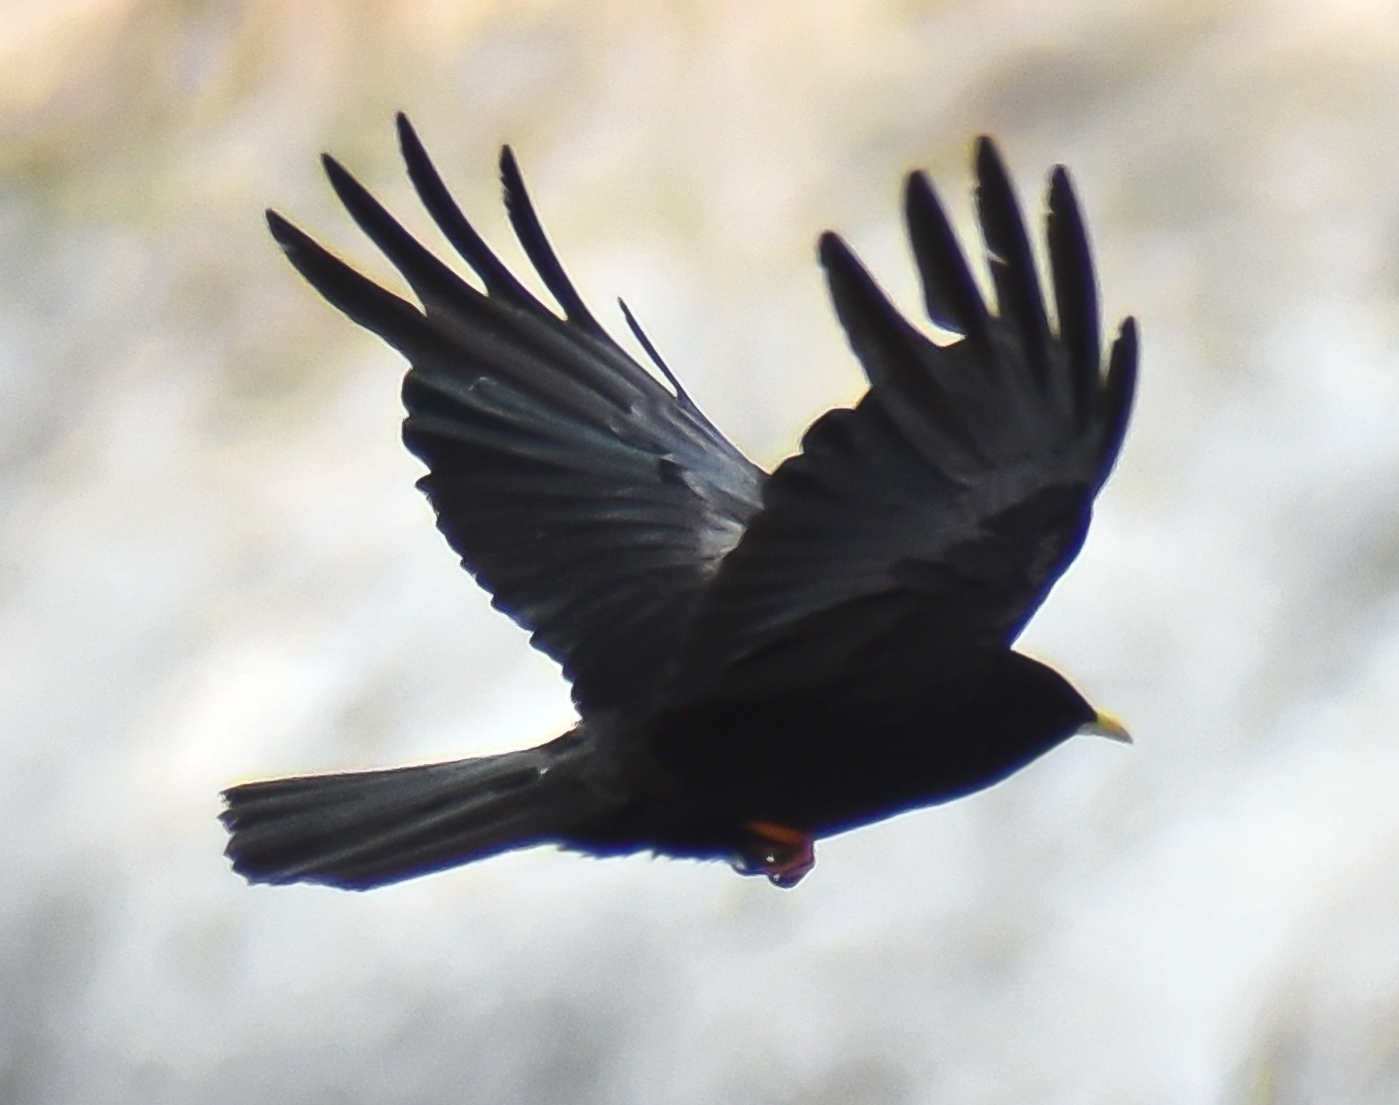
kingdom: Animalia
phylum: Chordata
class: Aves
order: Passeriformes
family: Corvidae
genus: Pyrrhocorax
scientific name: Pyrrhocorax graculus
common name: Alpine chough
